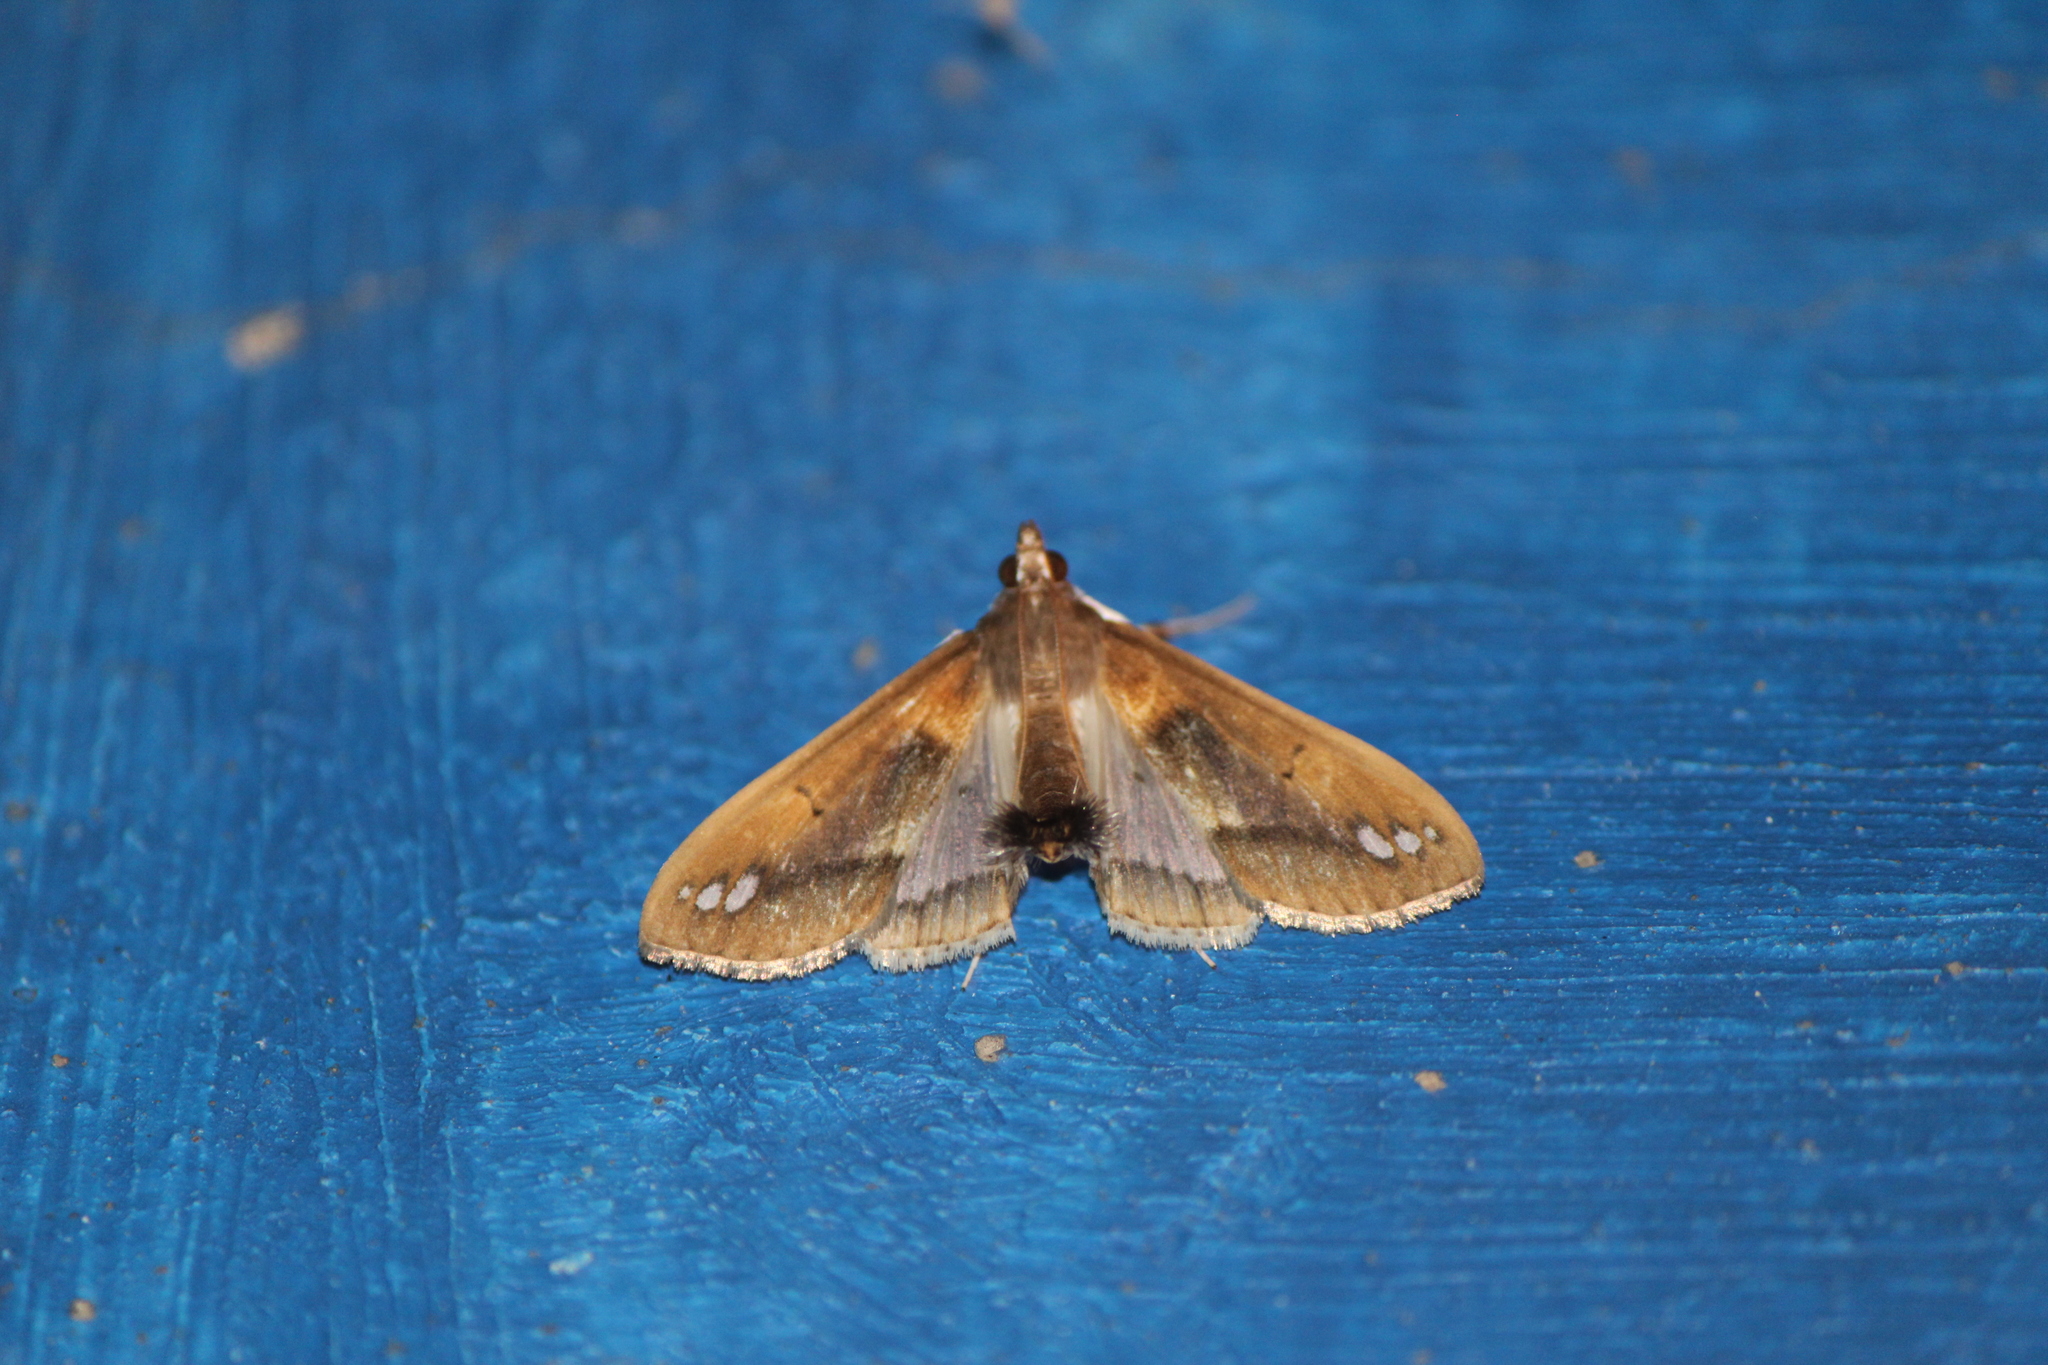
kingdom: Animalia
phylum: Arthropoda
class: Insecta
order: Lepidoptera
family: Crambidae
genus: Diaphania
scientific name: Diaphania
